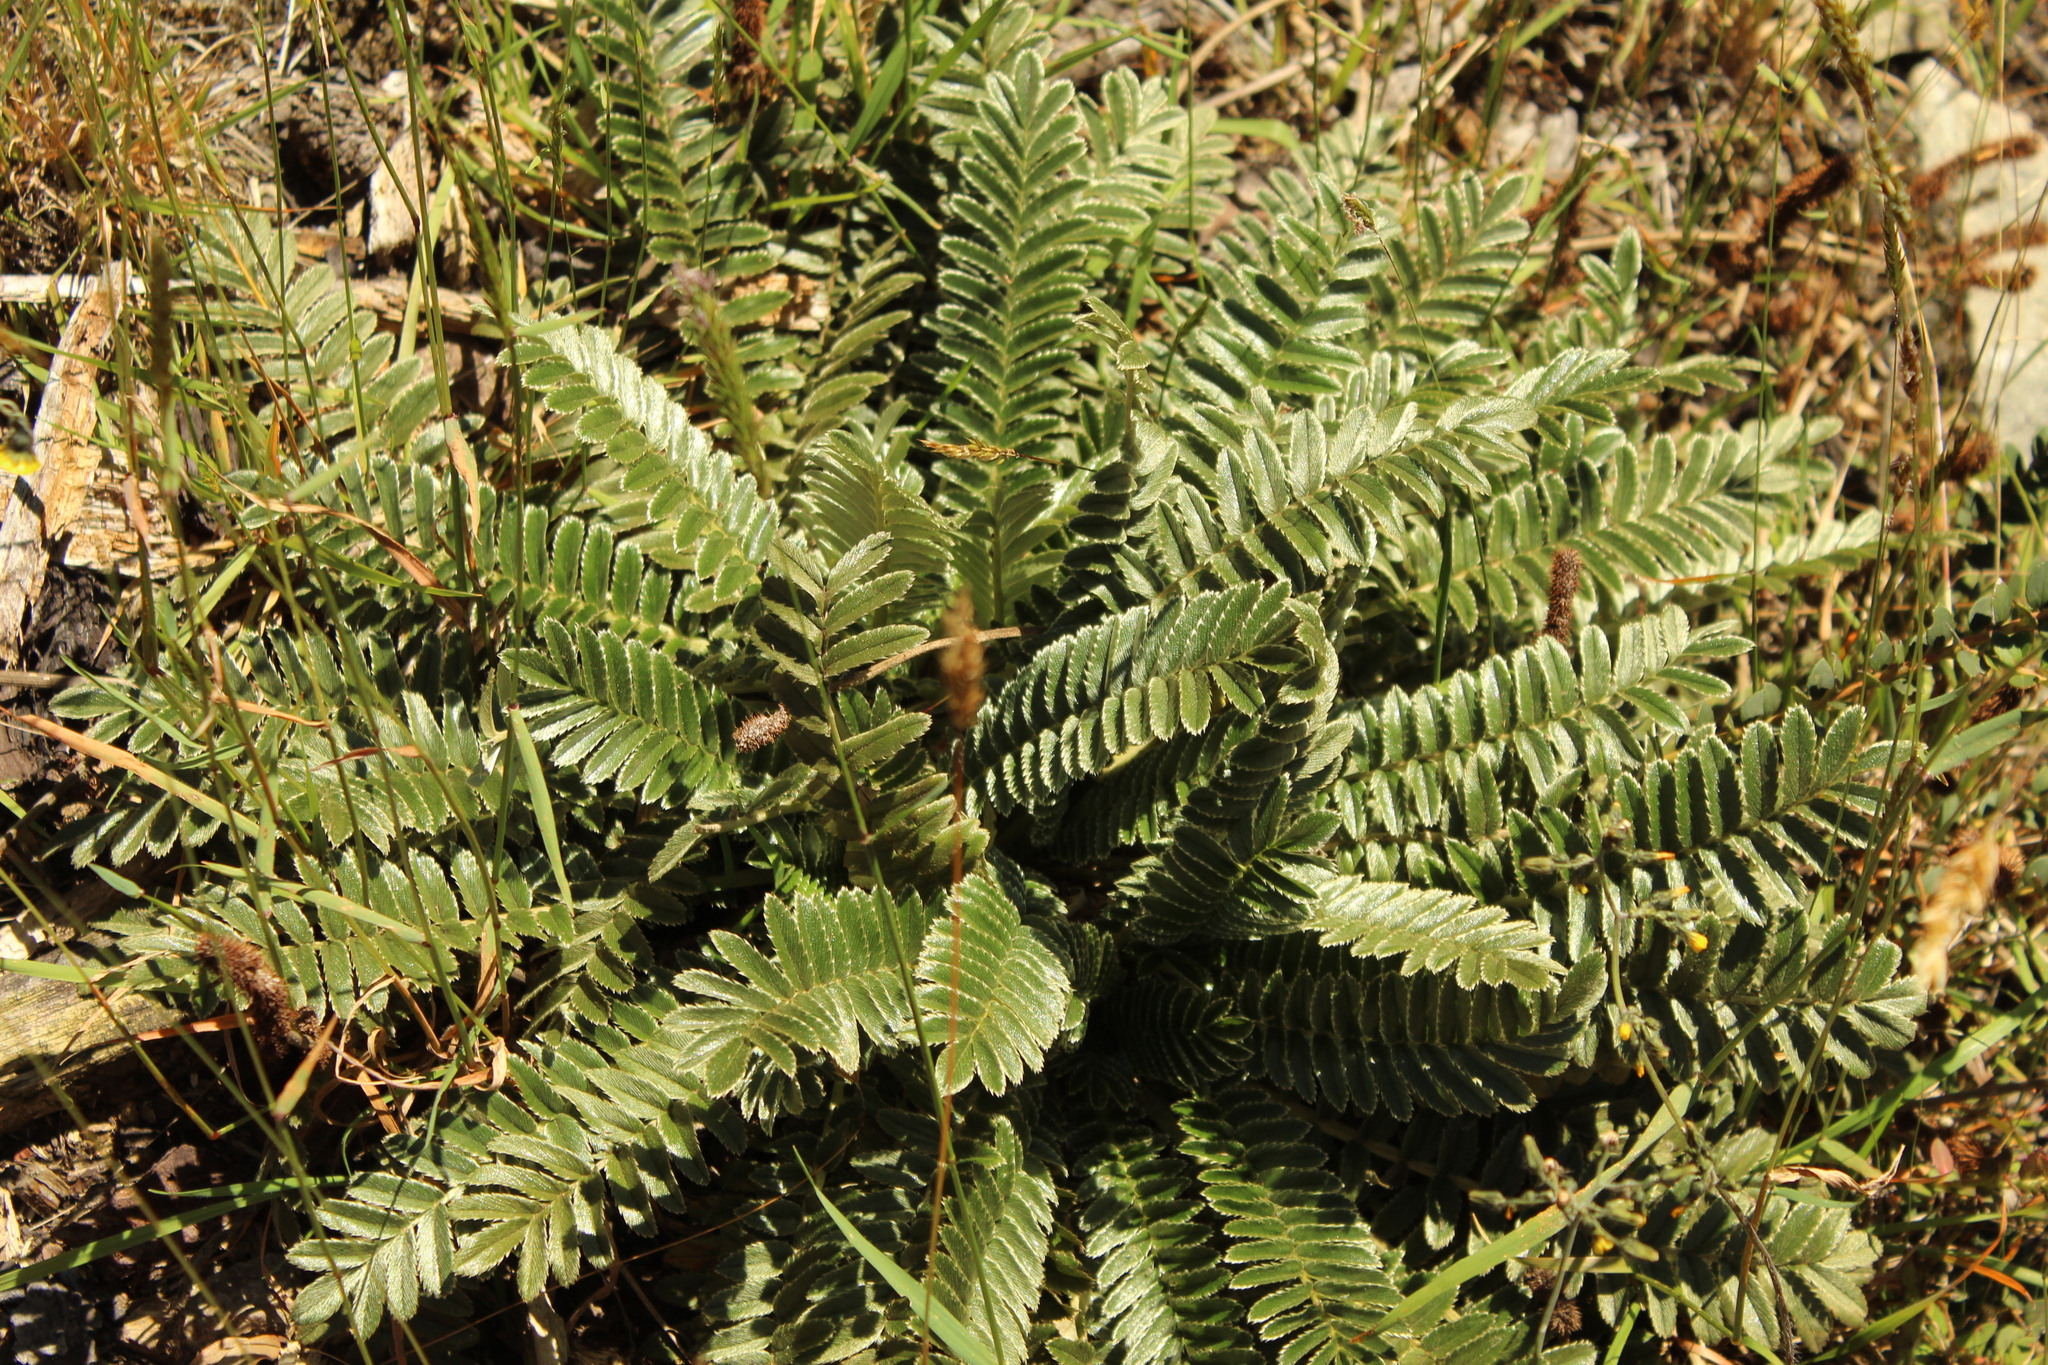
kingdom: Plantae
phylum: Tracheophyta
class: Magnoliopsida
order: Rosales
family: Rosaceae
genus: Acaena
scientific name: Acaena cylindristachya
